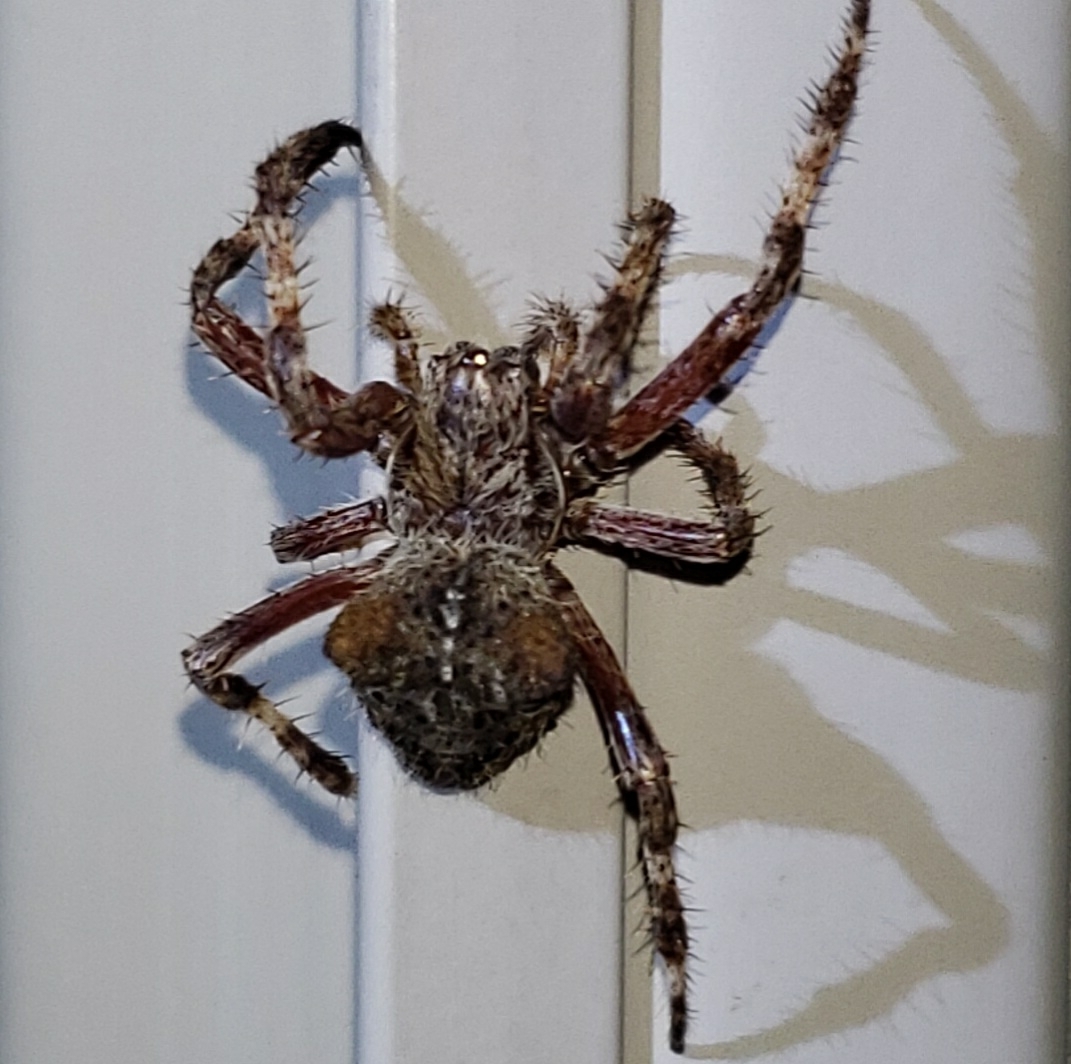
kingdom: Animalia
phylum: Arthropoda
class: Arachnida
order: Araneae
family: Araneidae
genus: Araneus
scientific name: Araneus saevus
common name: Fierce orbweaver
